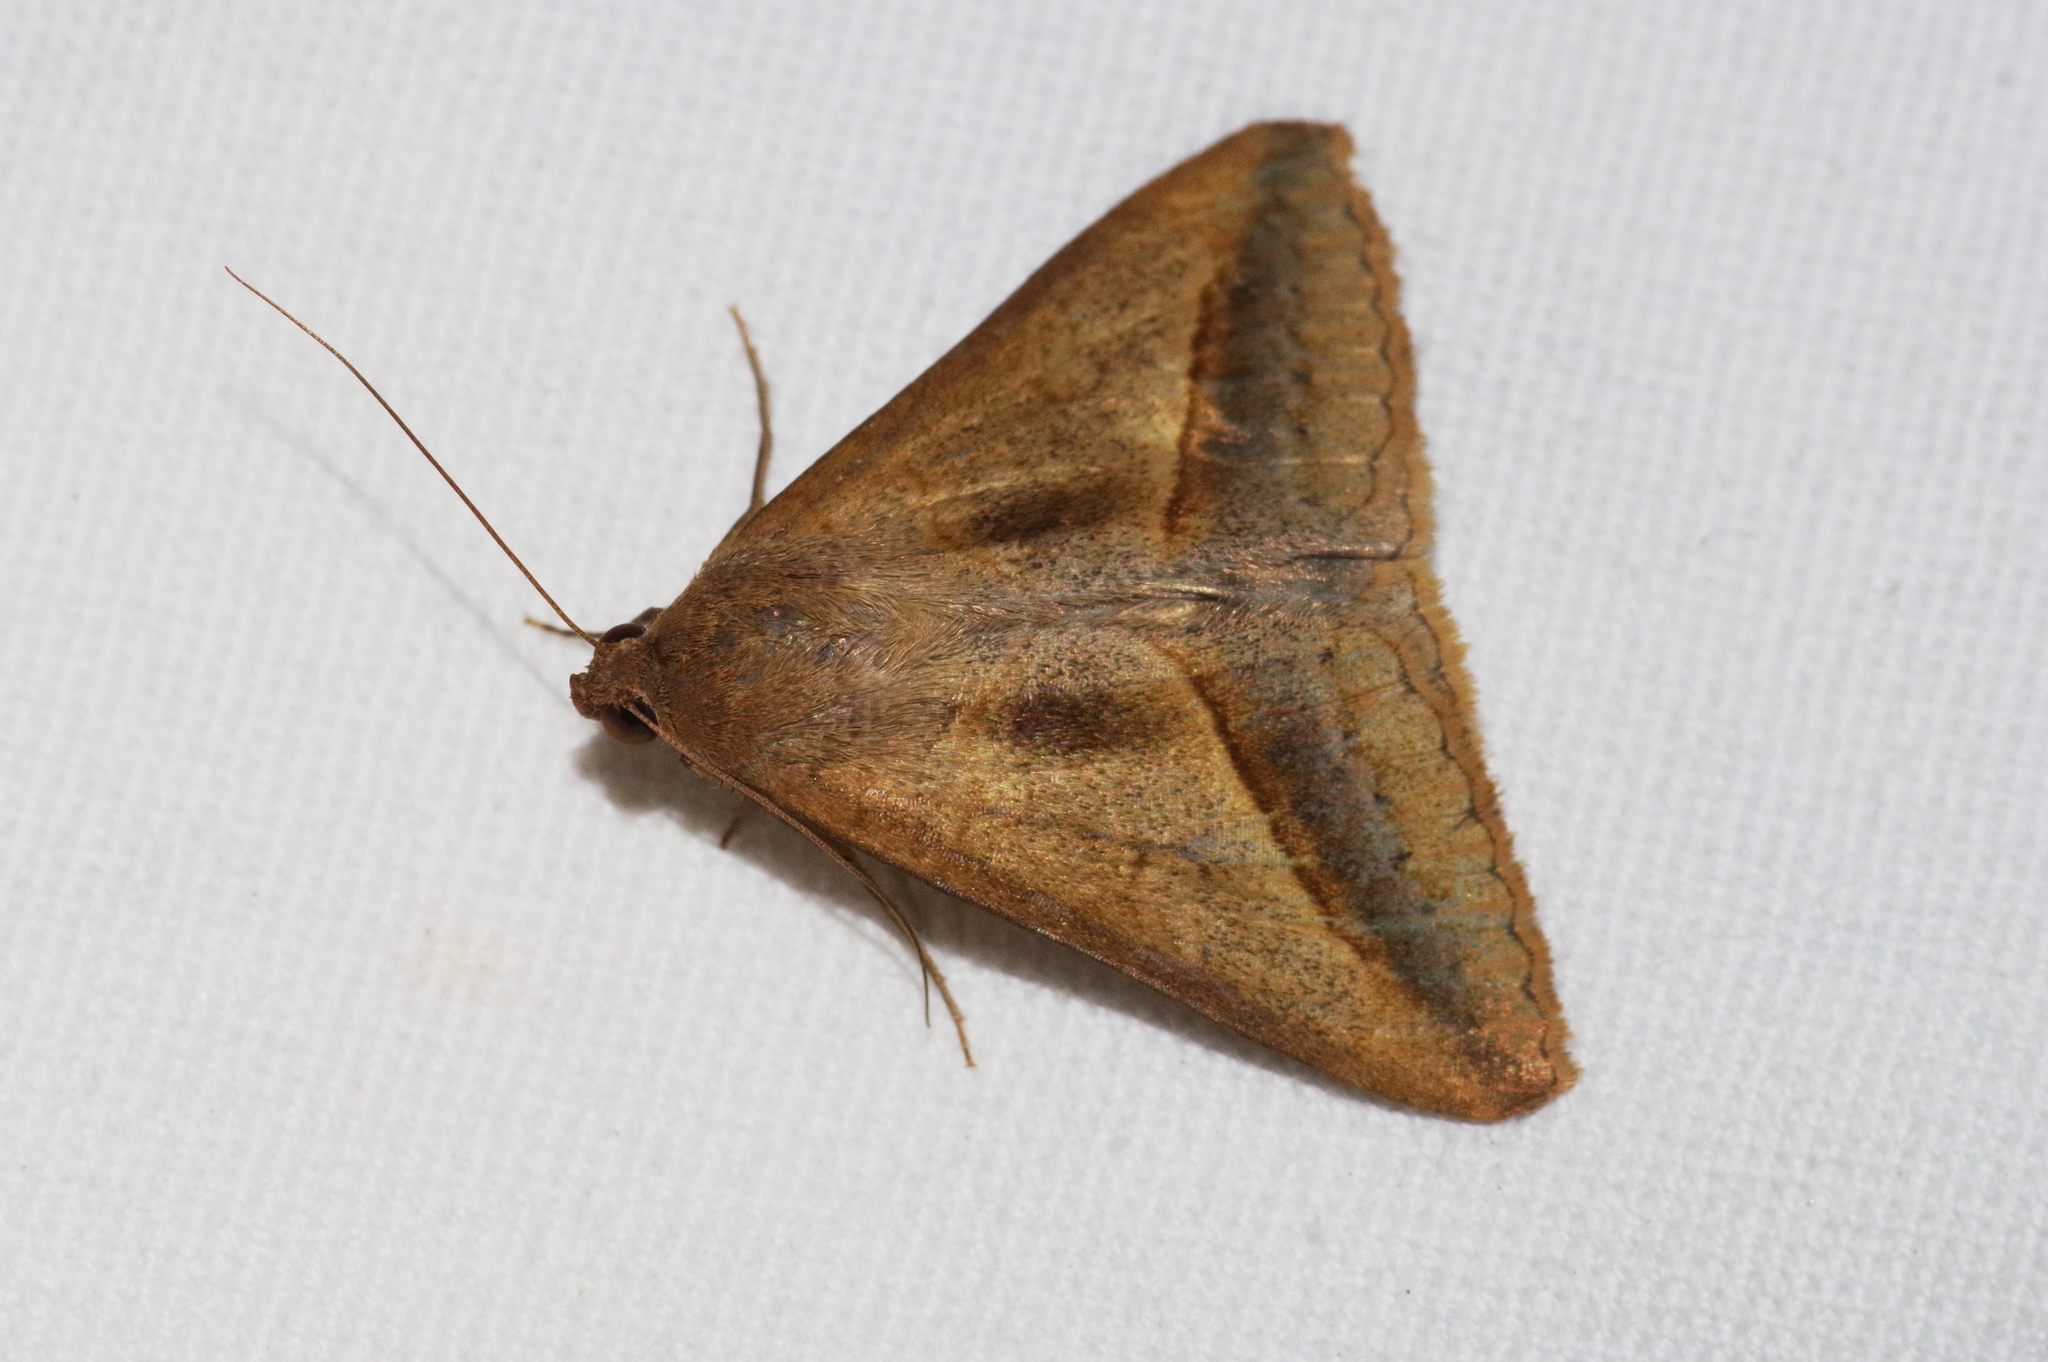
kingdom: Animalia
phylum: Arthropoda
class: Insecta
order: Lepidoptera
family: Erebidae
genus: Mocis
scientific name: Mocis frugalis
